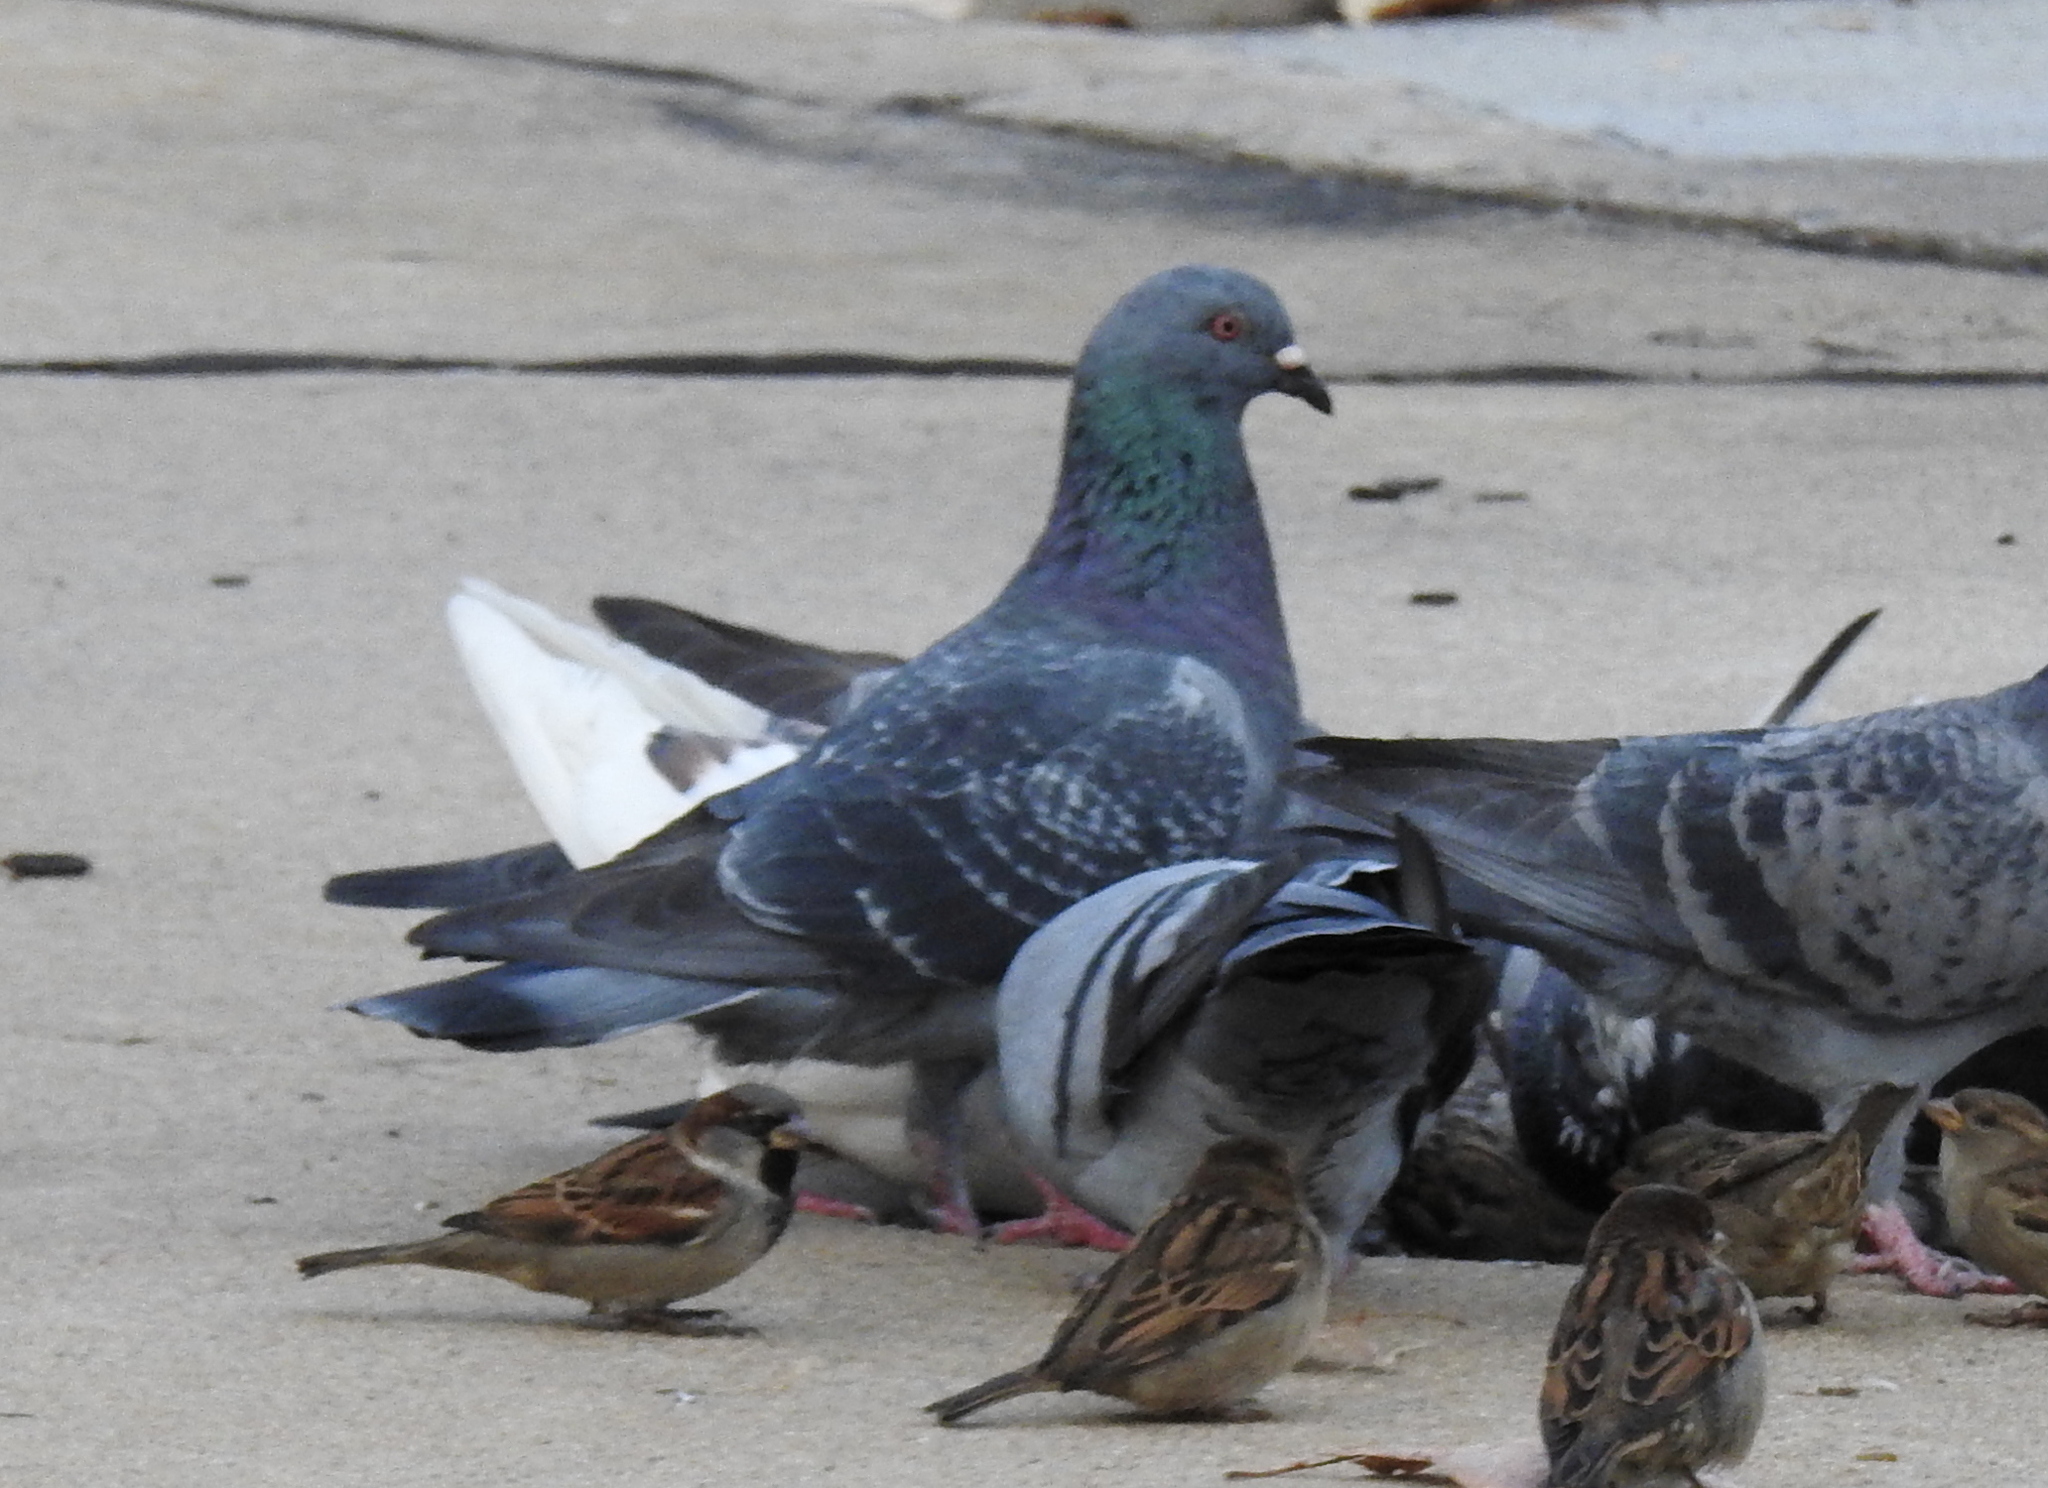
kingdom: Animalia
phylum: Chordata
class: Aves
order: Columbiformes
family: Columbidae
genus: Columba
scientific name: Columba livia
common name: Rock pigeon
